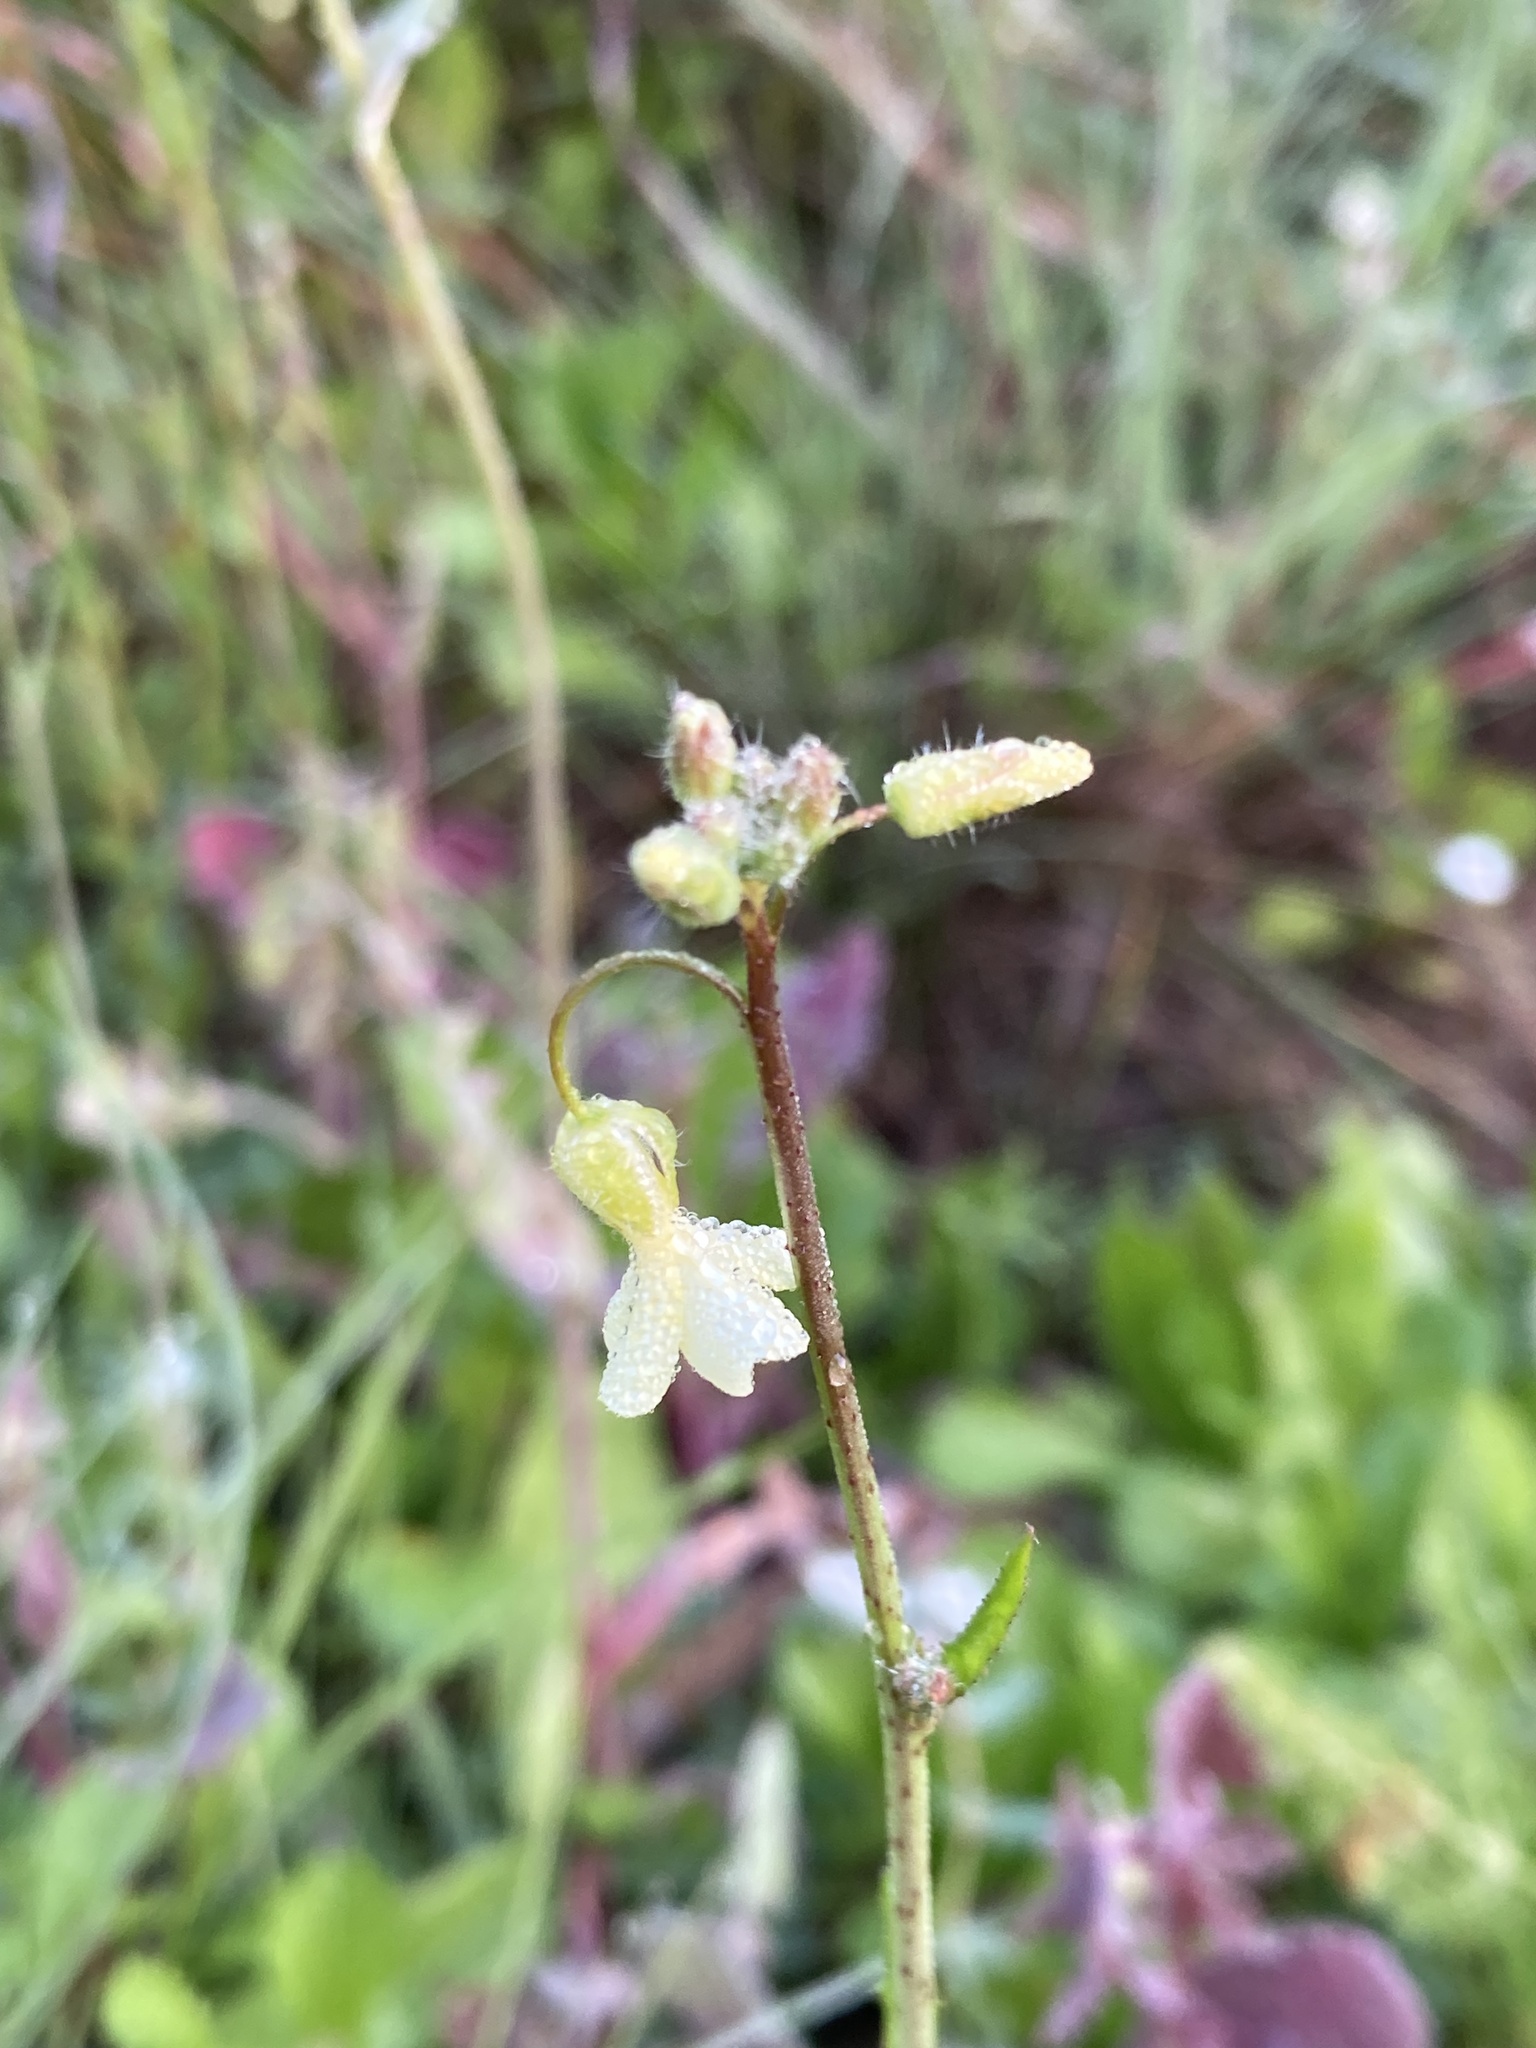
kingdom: Plantae
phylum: Tracheophyta
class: Magnoliopsida
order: Brassicales
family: Brassicaceae
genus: Raphanus
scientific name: Raphanus raphanistrum
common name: Wild radish
